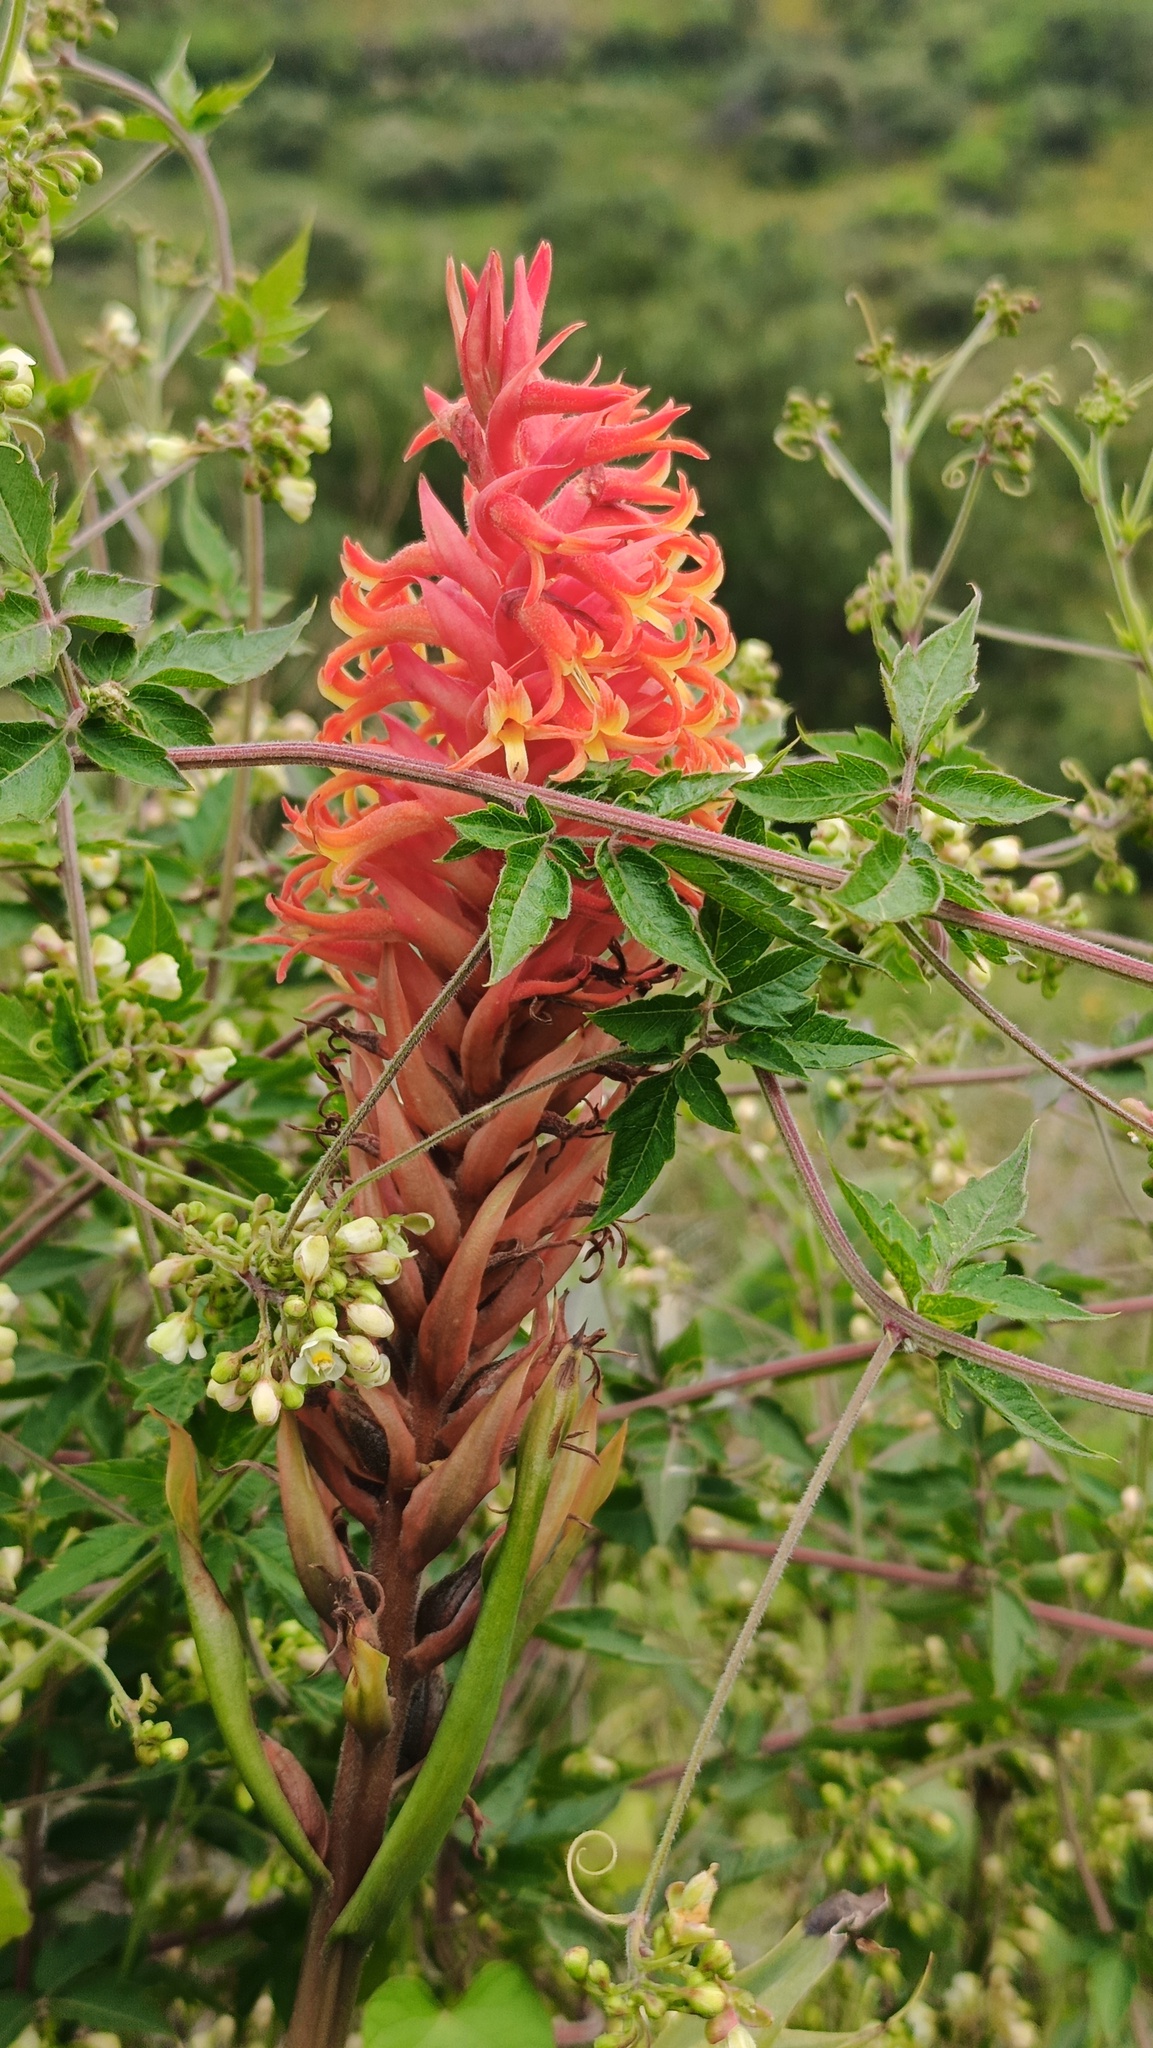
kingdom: Plantae
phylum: Tracheophyta
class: Liliopsida
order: Asparagales
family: Orchidaceae
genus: Dichromanthus
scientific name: Dichromanthus cinnabarinus
